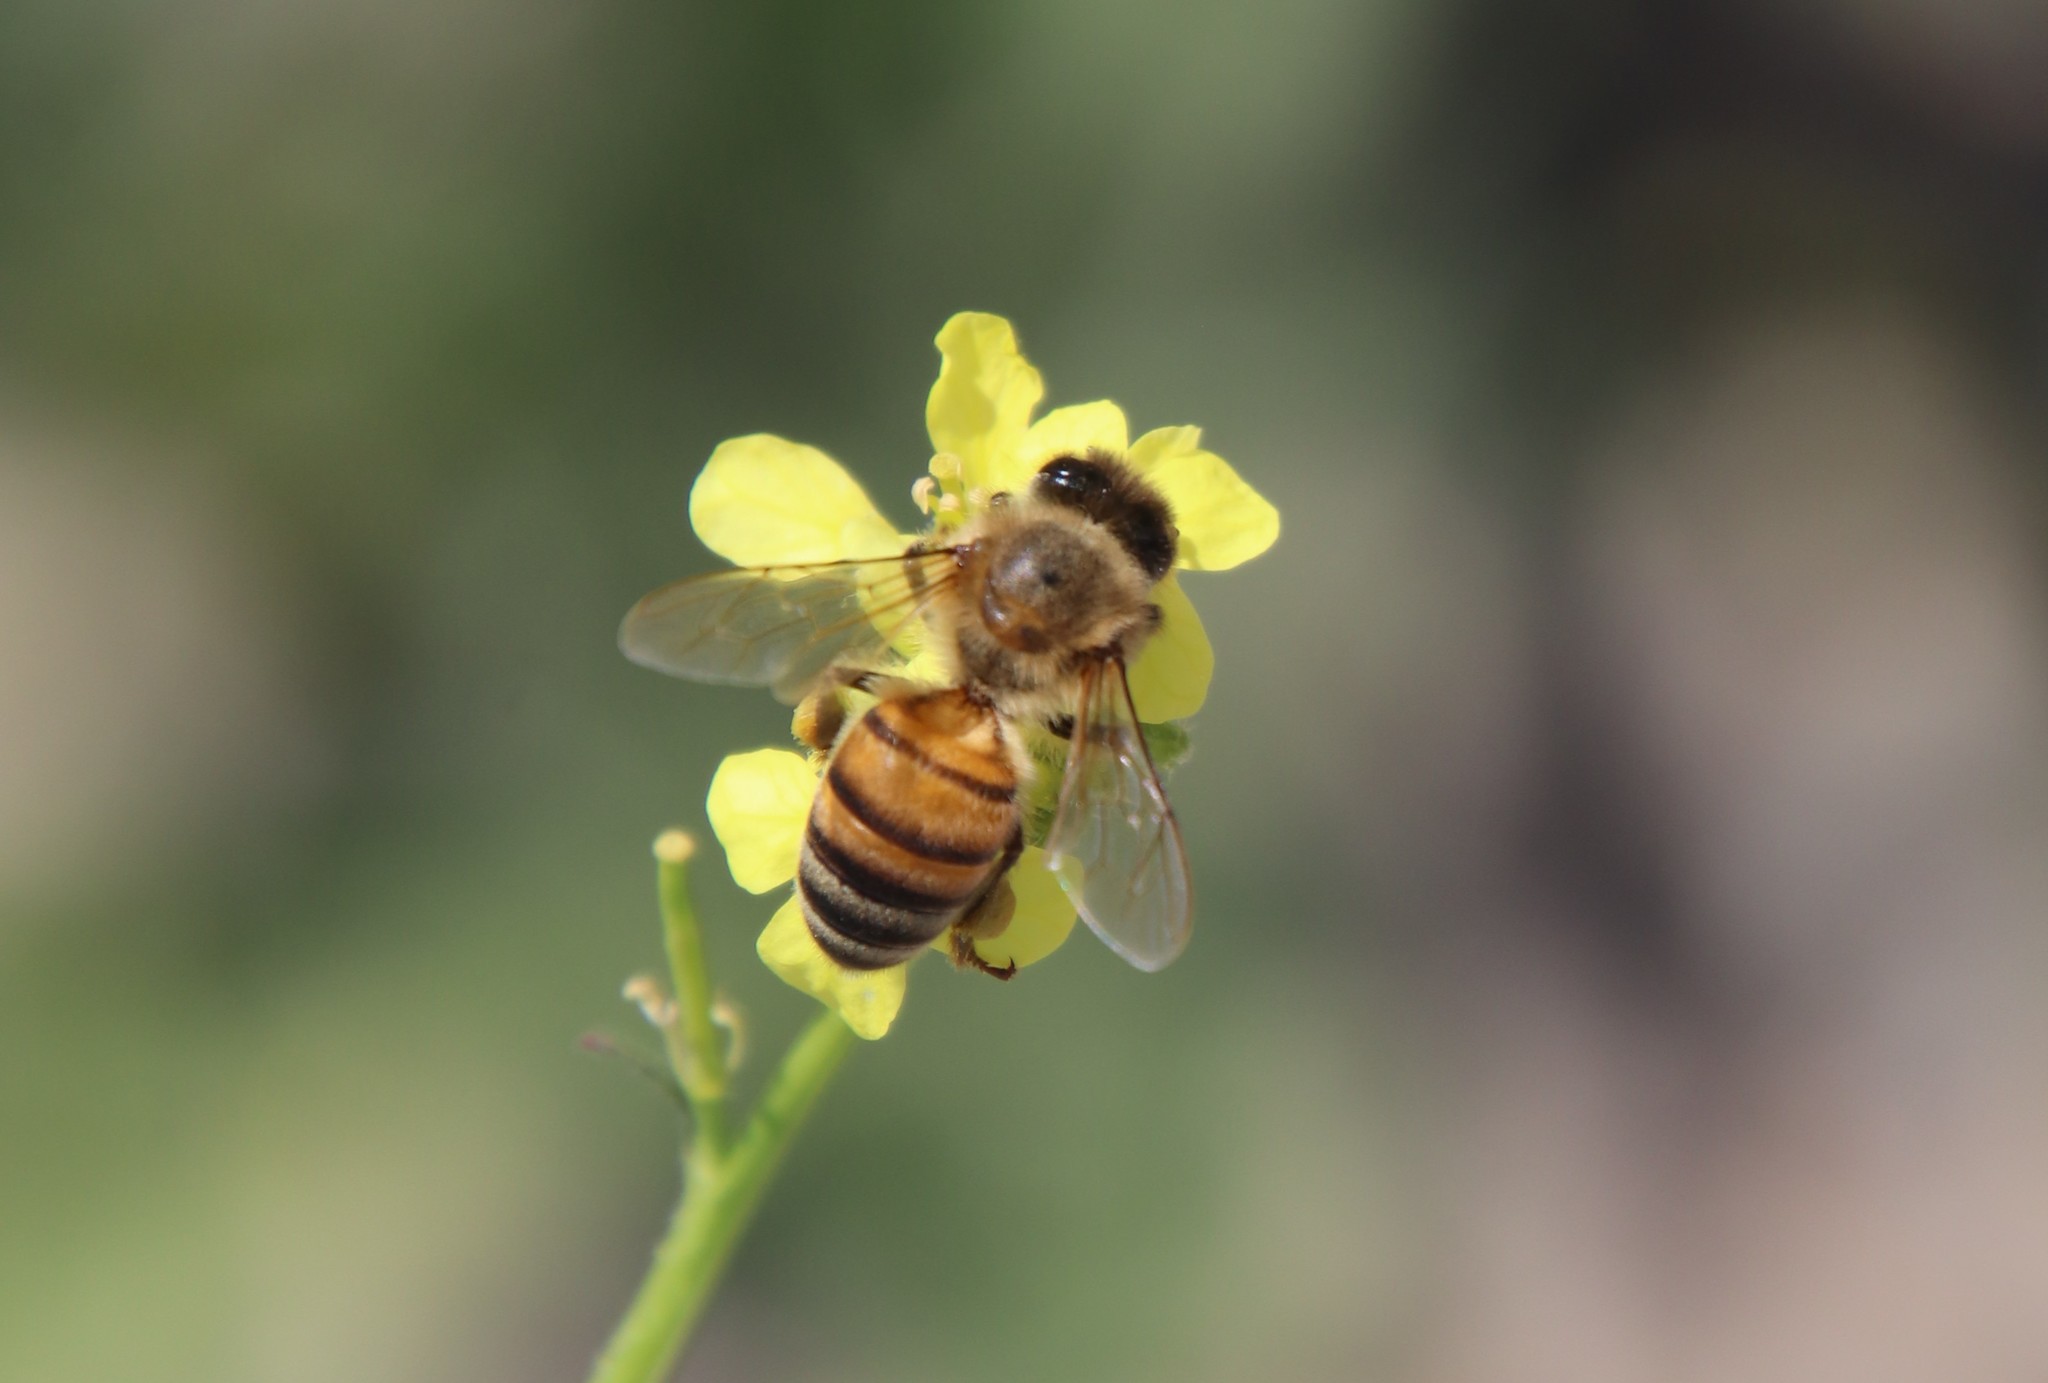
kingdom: Animalia
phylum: Arthropoda
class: Insecta
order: Hymenoptera
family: Apidae
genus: Apis
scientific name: Apis mellifera
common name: Honey bee
